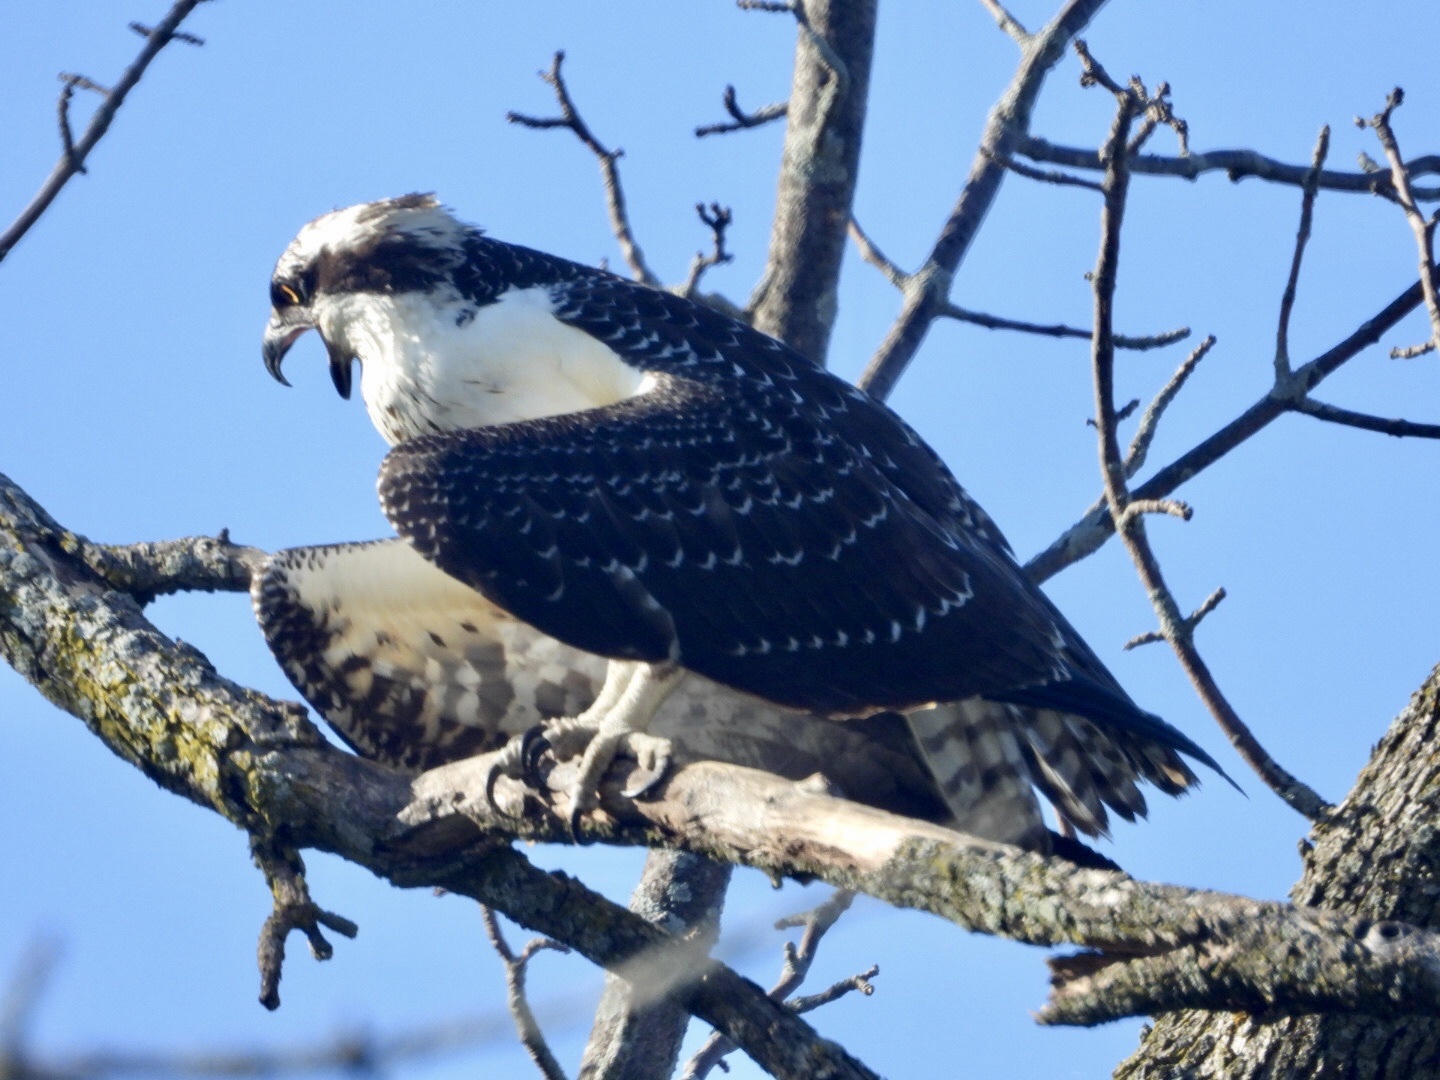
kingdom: Animalia
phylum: Chordata
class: Aves
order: Accipitriformes
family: Pandionidae
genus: Pandion
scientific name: Pandion haliaetus
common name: Osprey
